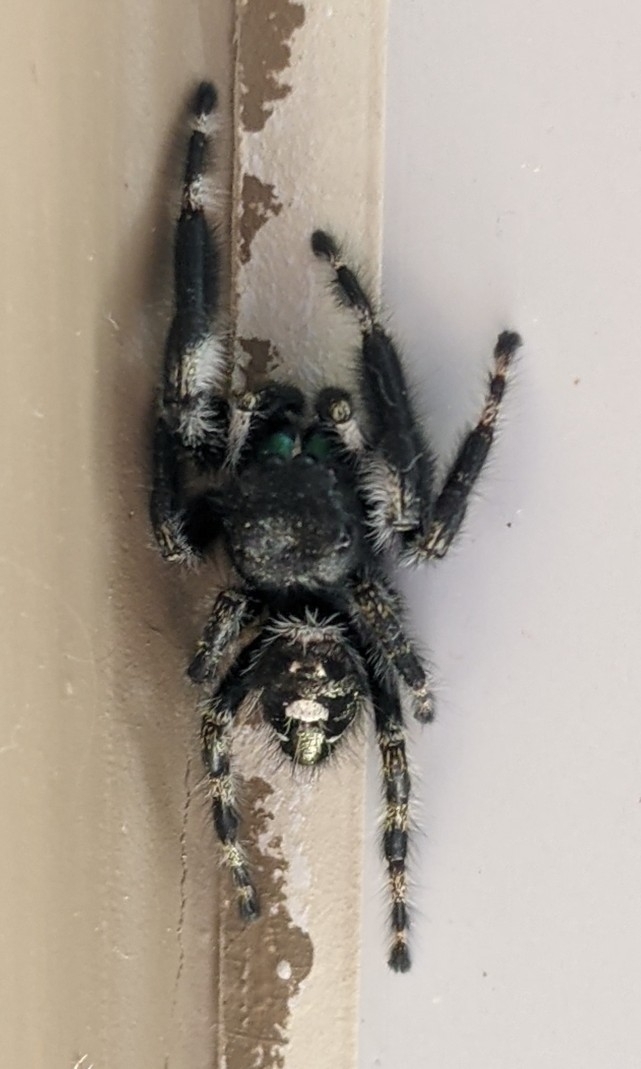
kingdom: Animalia
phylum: Arthropoda
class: Arachnida
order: Araneae
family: Salticidae
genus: Phidippus
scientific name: Phidippus audax
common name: Bold jumper
